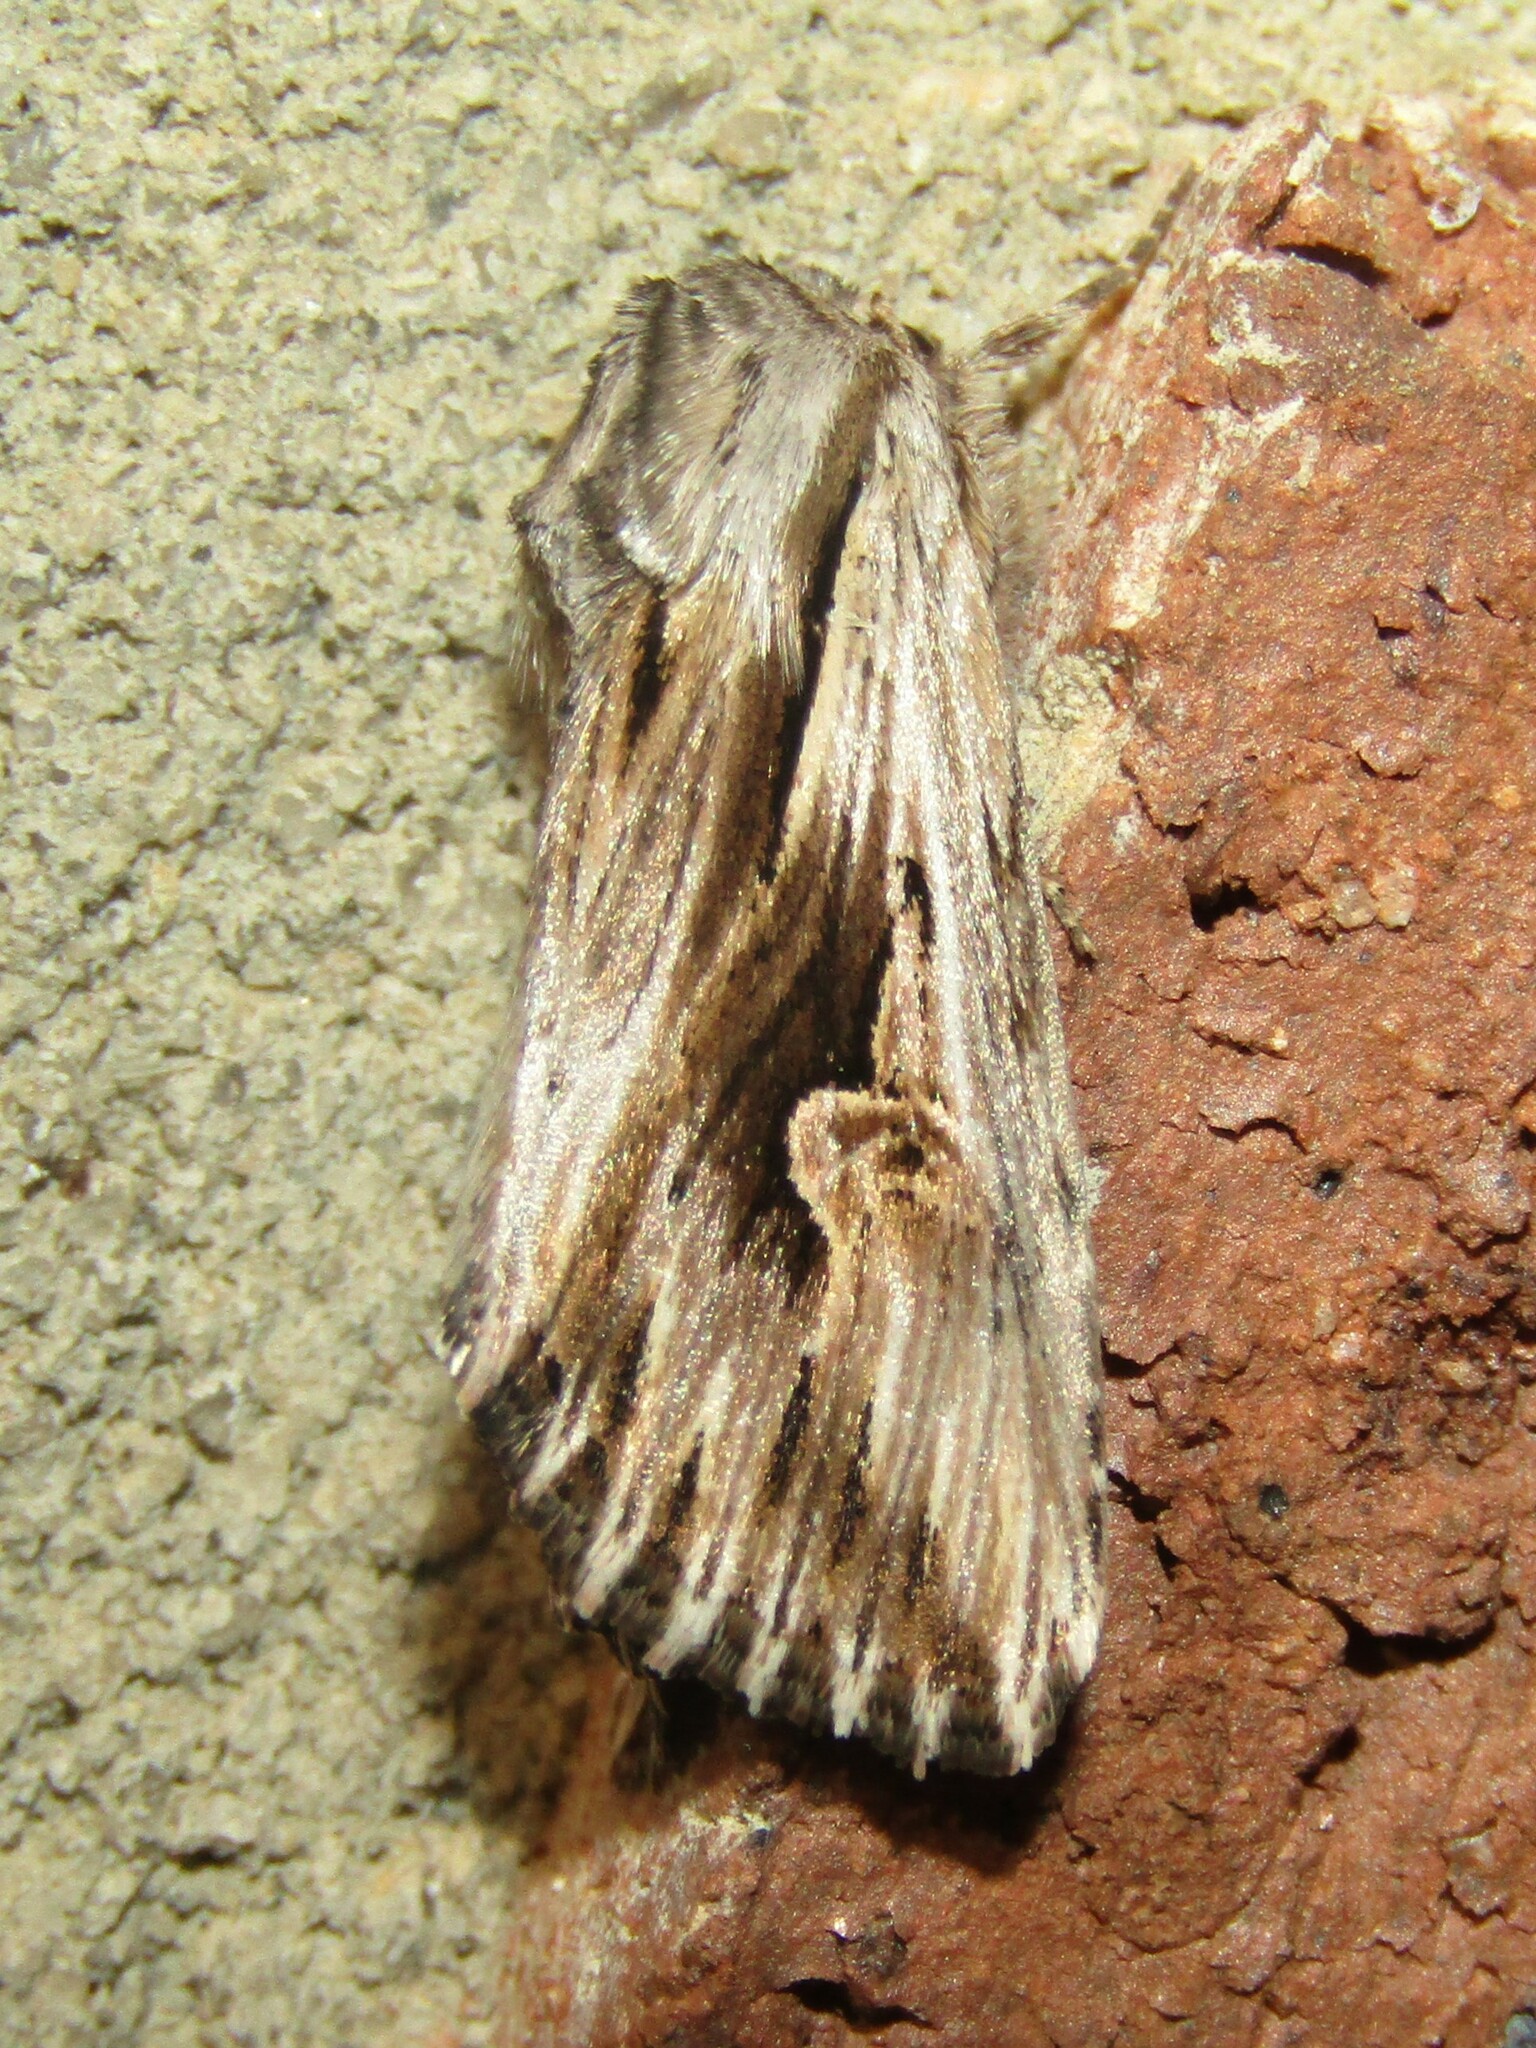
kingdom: Animalia
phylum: Arthropoda
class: Insecta
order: Lepidoptera
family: Noctuidae
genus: Nedra
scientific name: Nedra ramosula
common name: Gray half-spot
